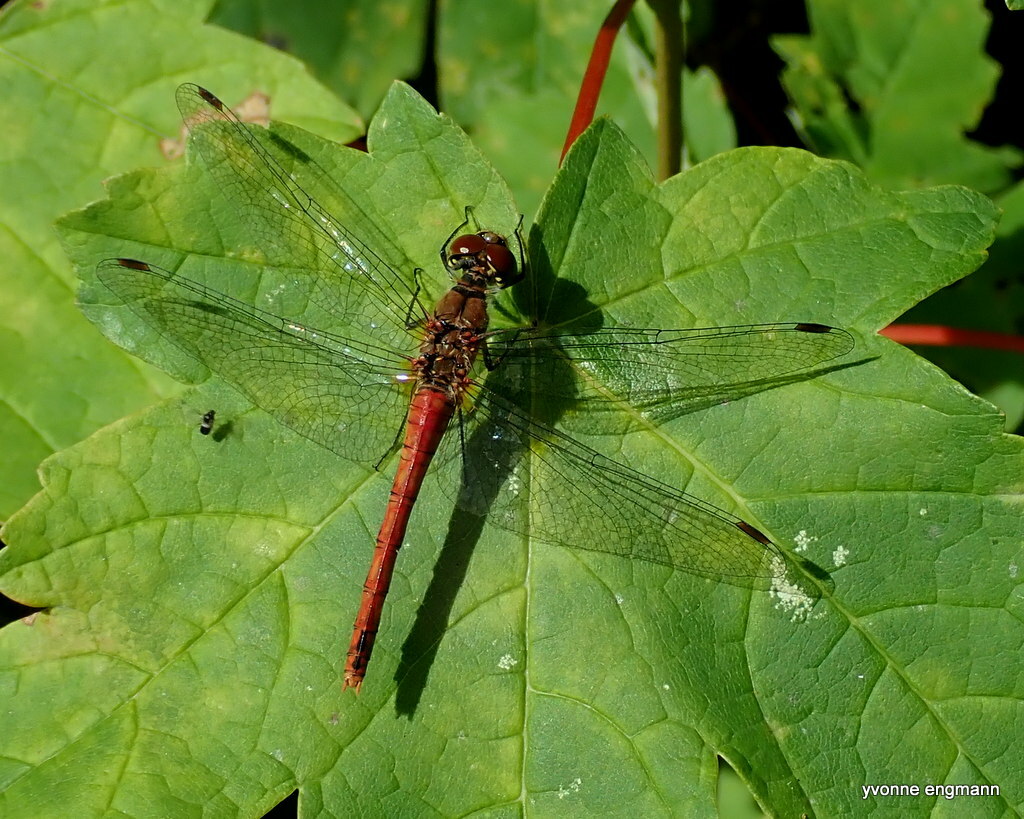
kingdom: Animalia
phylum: Arthropoda
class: Insecta
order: Odonata
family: Libellulidae
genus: Sympetrum
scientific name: Sympetrum sanguineum
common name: Ruddy darter
